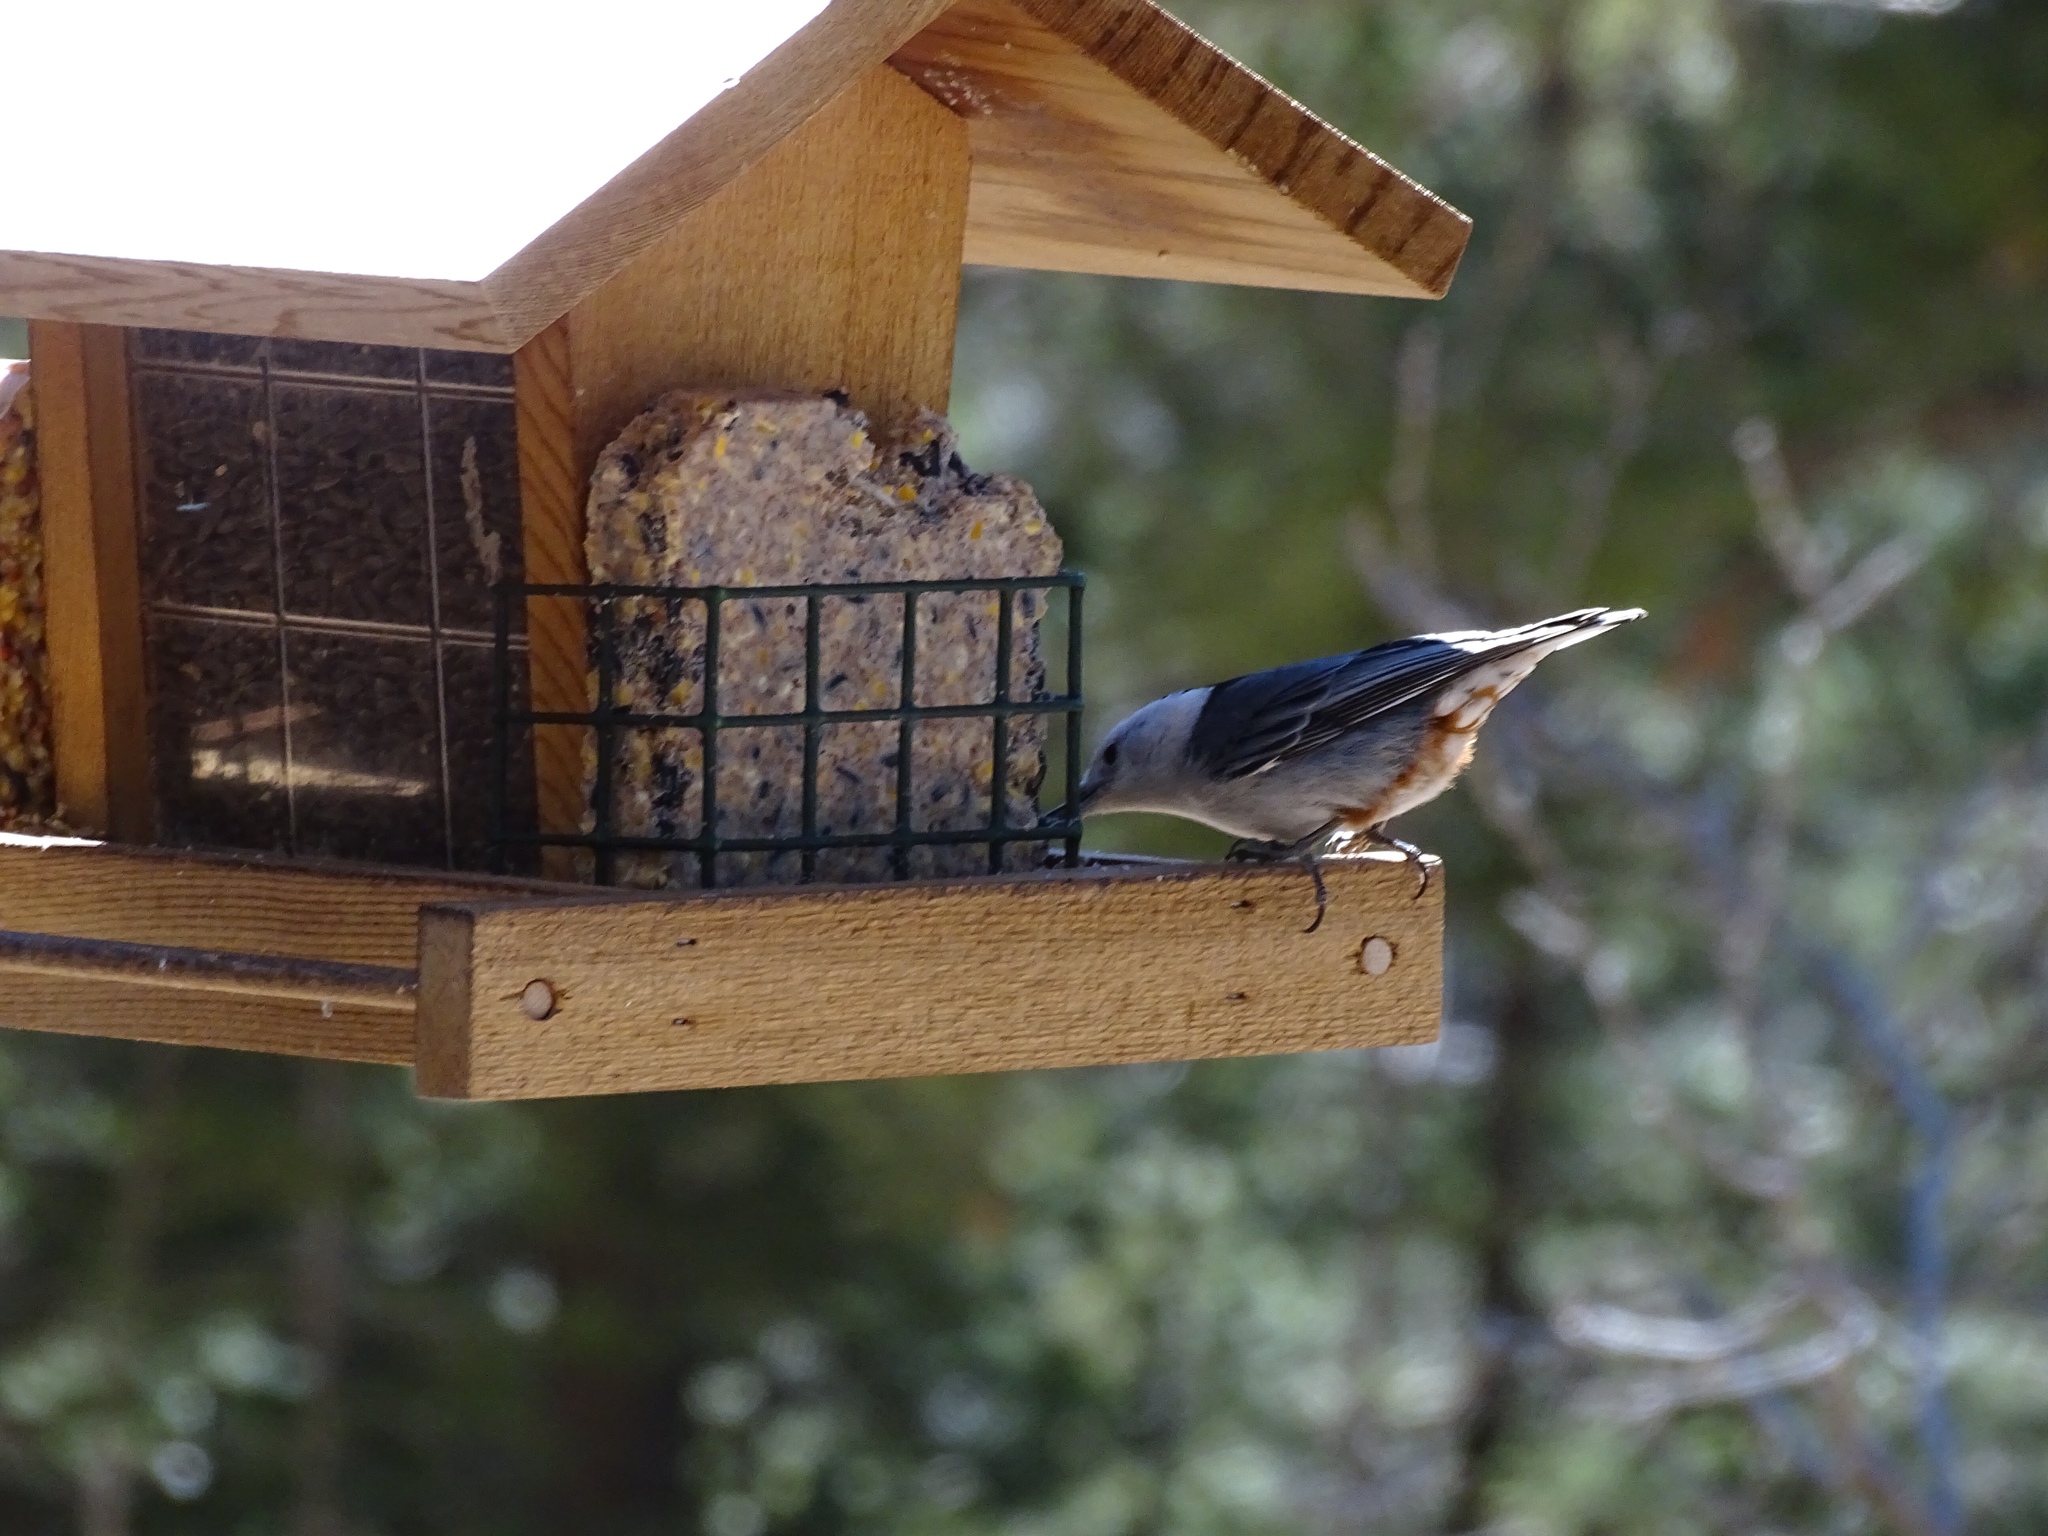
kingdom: Animalia
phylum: Chordata
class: Aves
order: Passeriformes
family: Sittidae
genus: Sitta
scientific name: Sitta carolinensis
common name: White-breasted nuthatch
